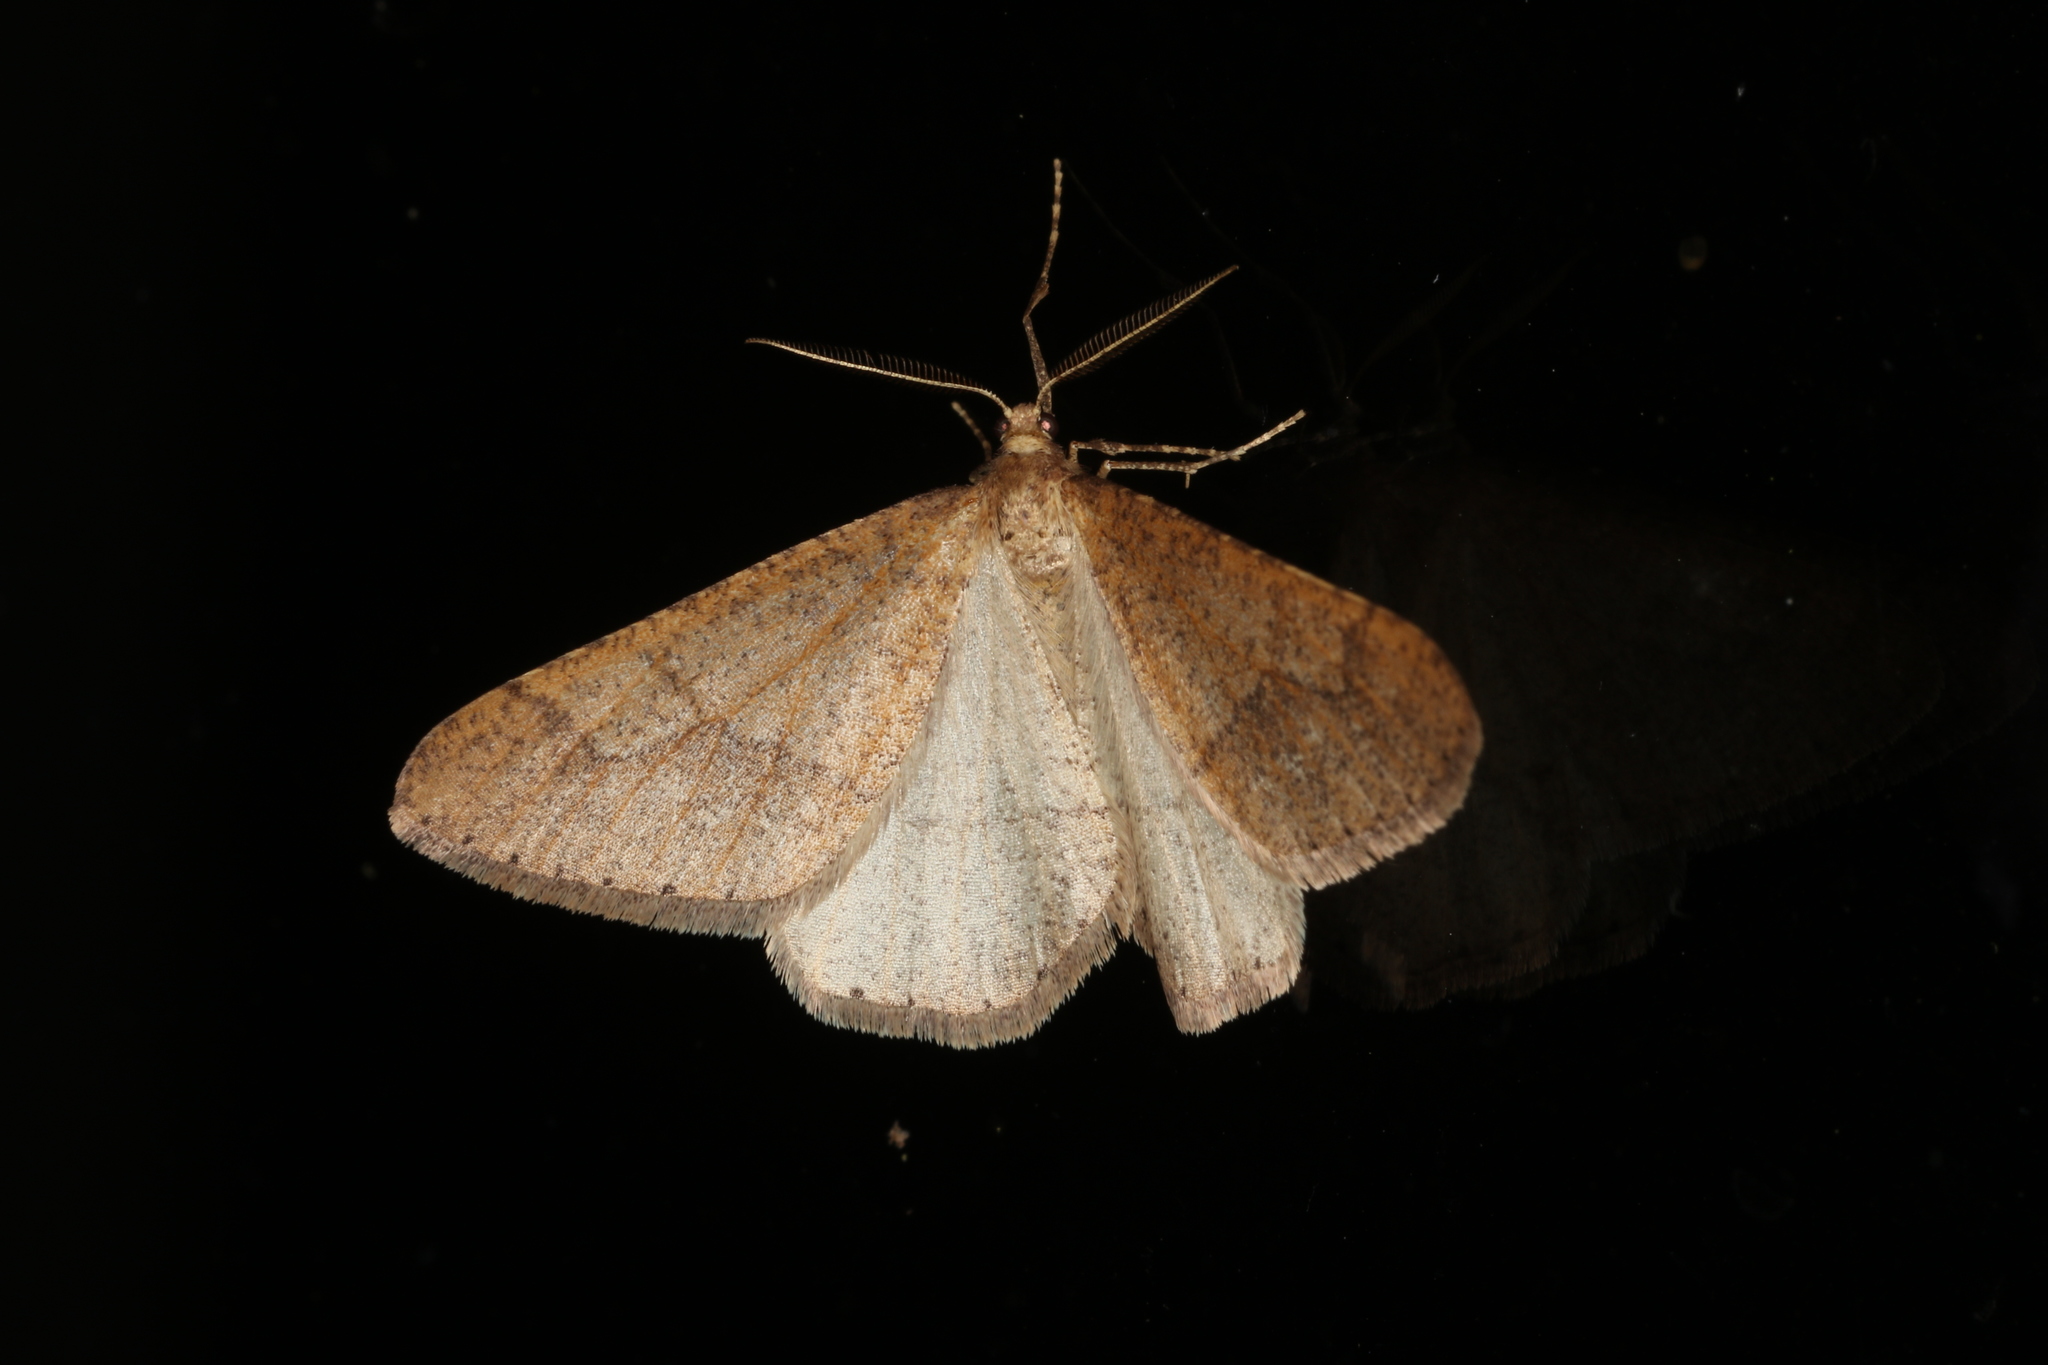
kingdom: Animalia
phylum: Arthropoda
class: Insecta
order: Lepidoptera
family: Geometridae
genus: Agriopis
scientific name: Agriopis marginaria
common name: Dotted border
